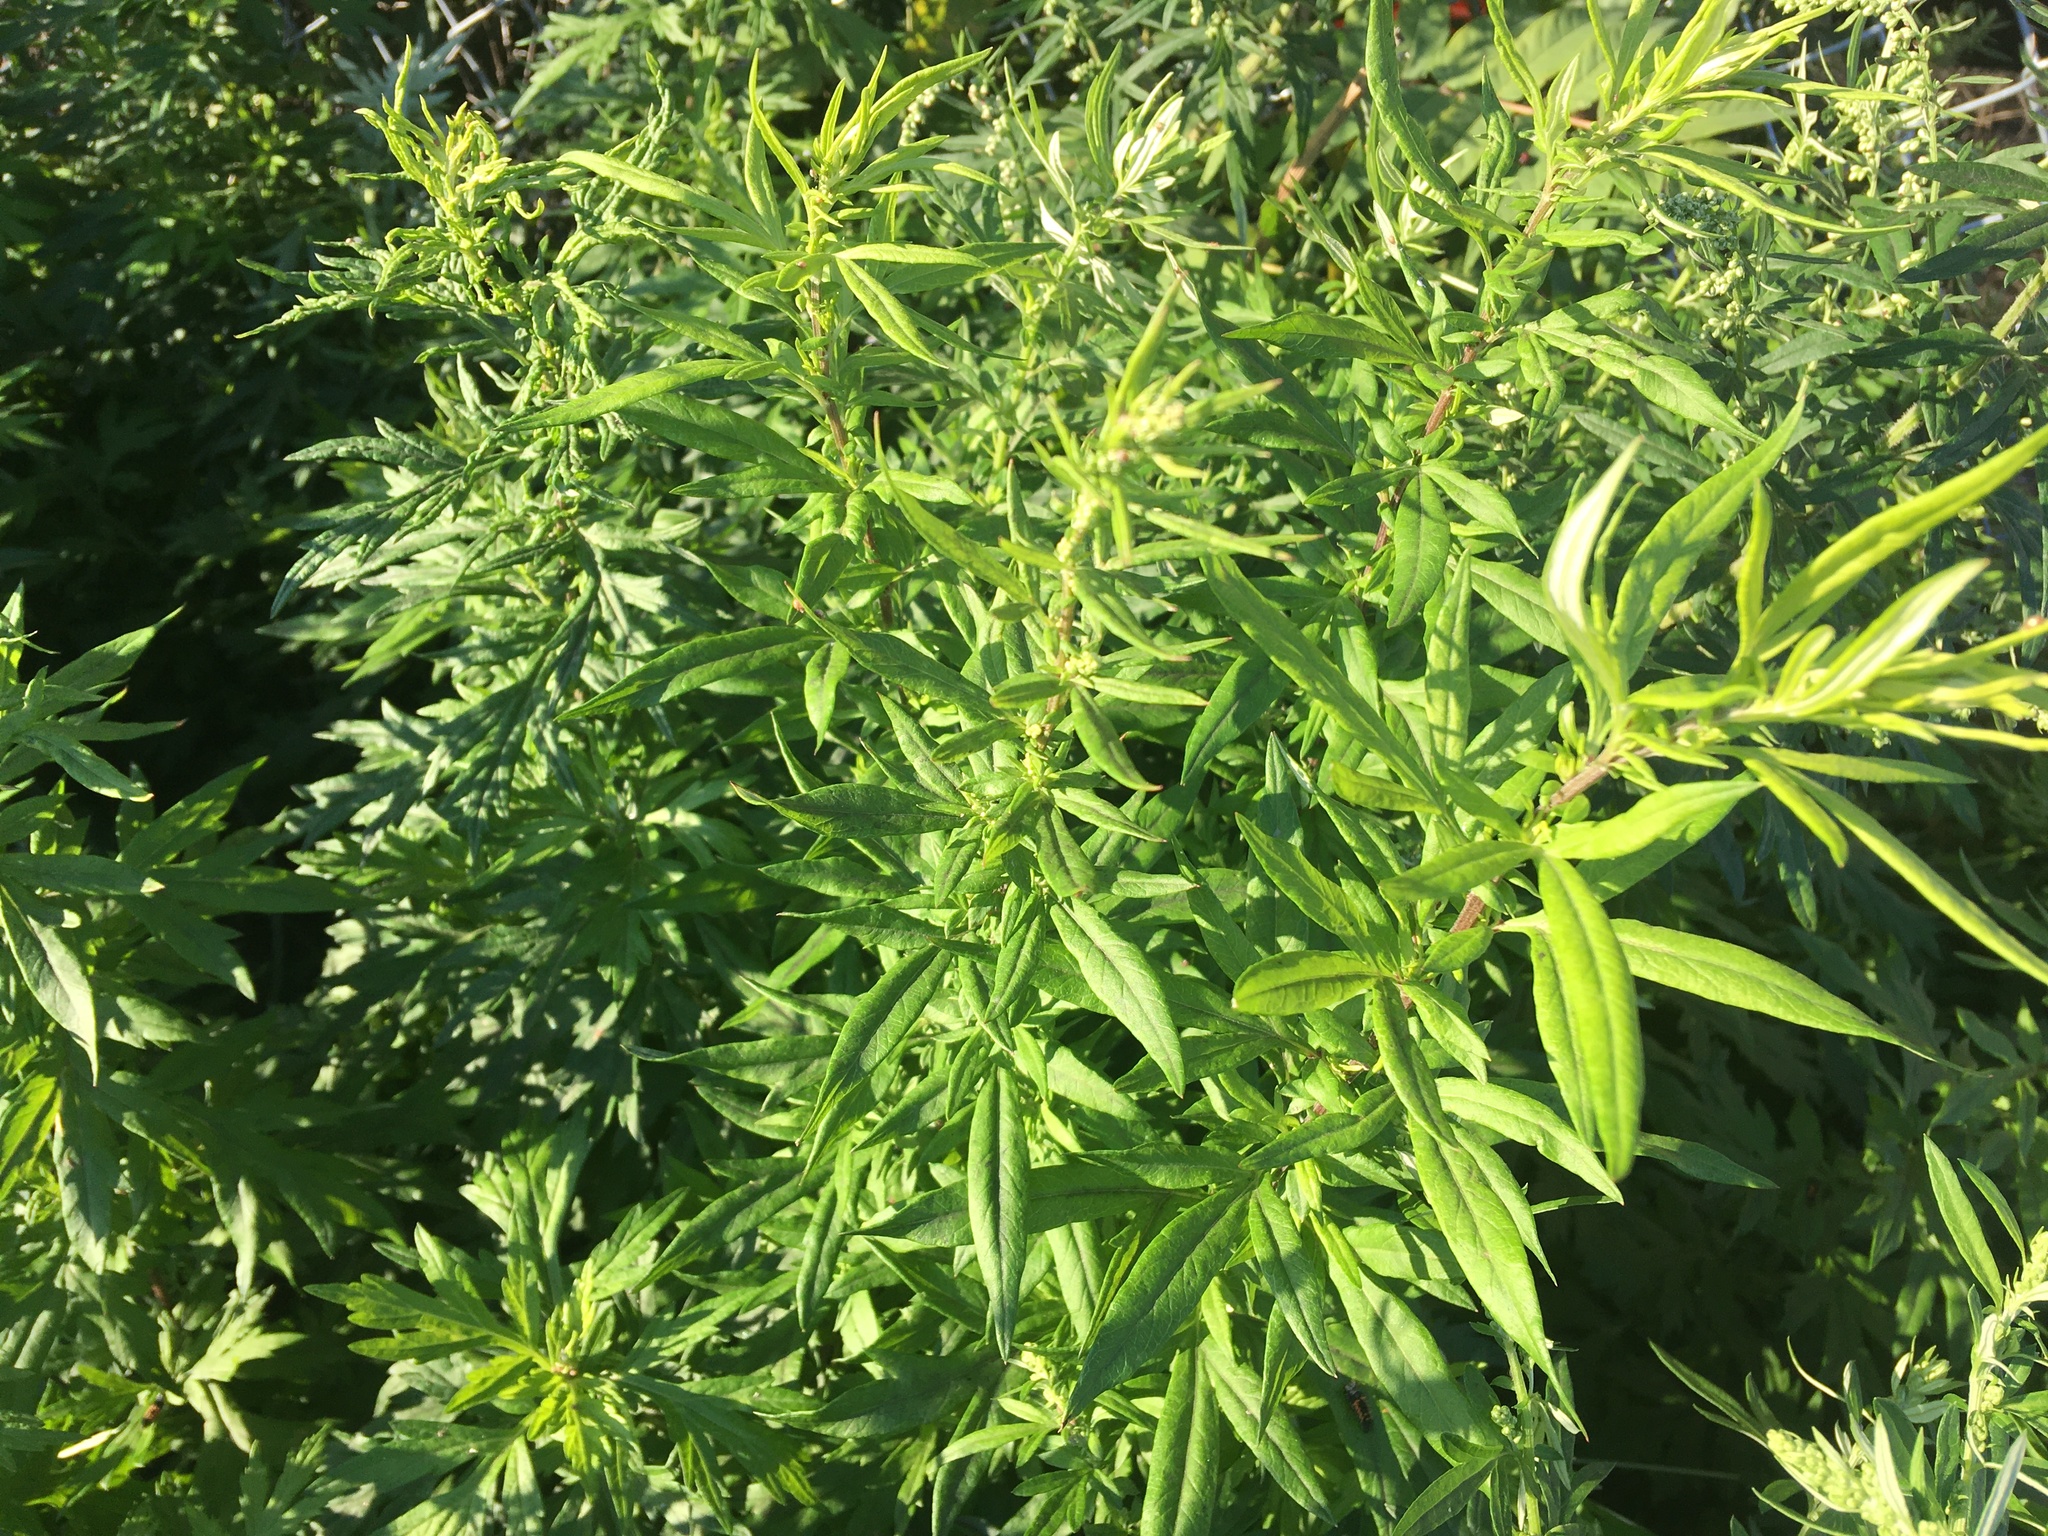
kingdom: Plantae
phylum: Tracheophyta
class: Magnoliopsida
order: Asterales
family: Asteraceae
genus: Artemisia
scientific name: Artemisia vulgaris
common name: Mugwort
